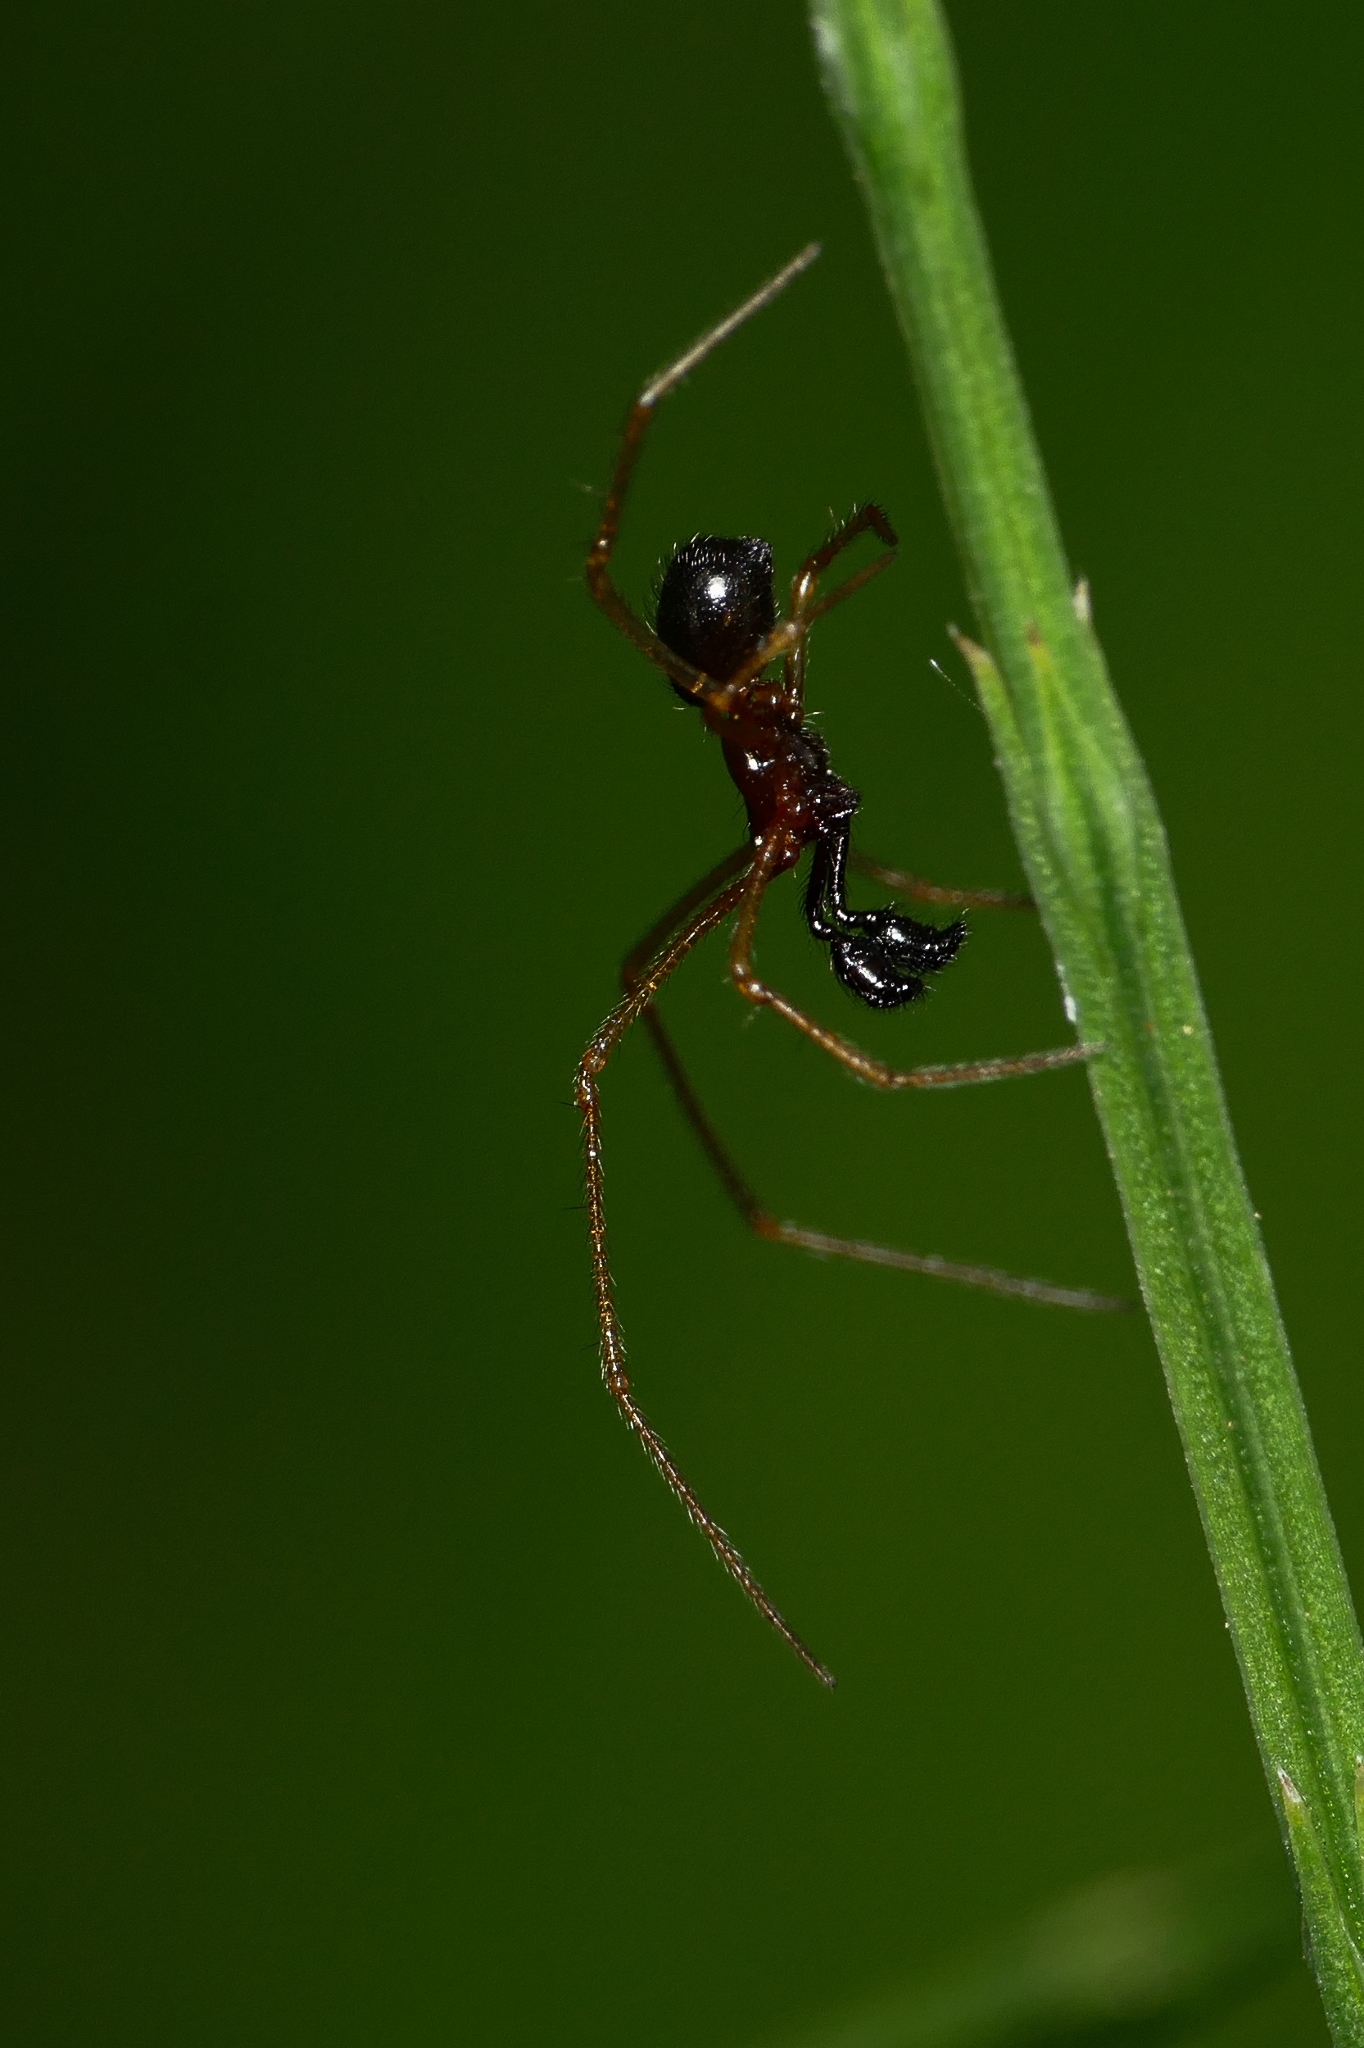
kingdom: Animalia
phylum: Arthropoda
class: Arachnida
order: Araneae
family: Theridiidae
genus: Neottiura
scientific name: Neottiura bimaculata
